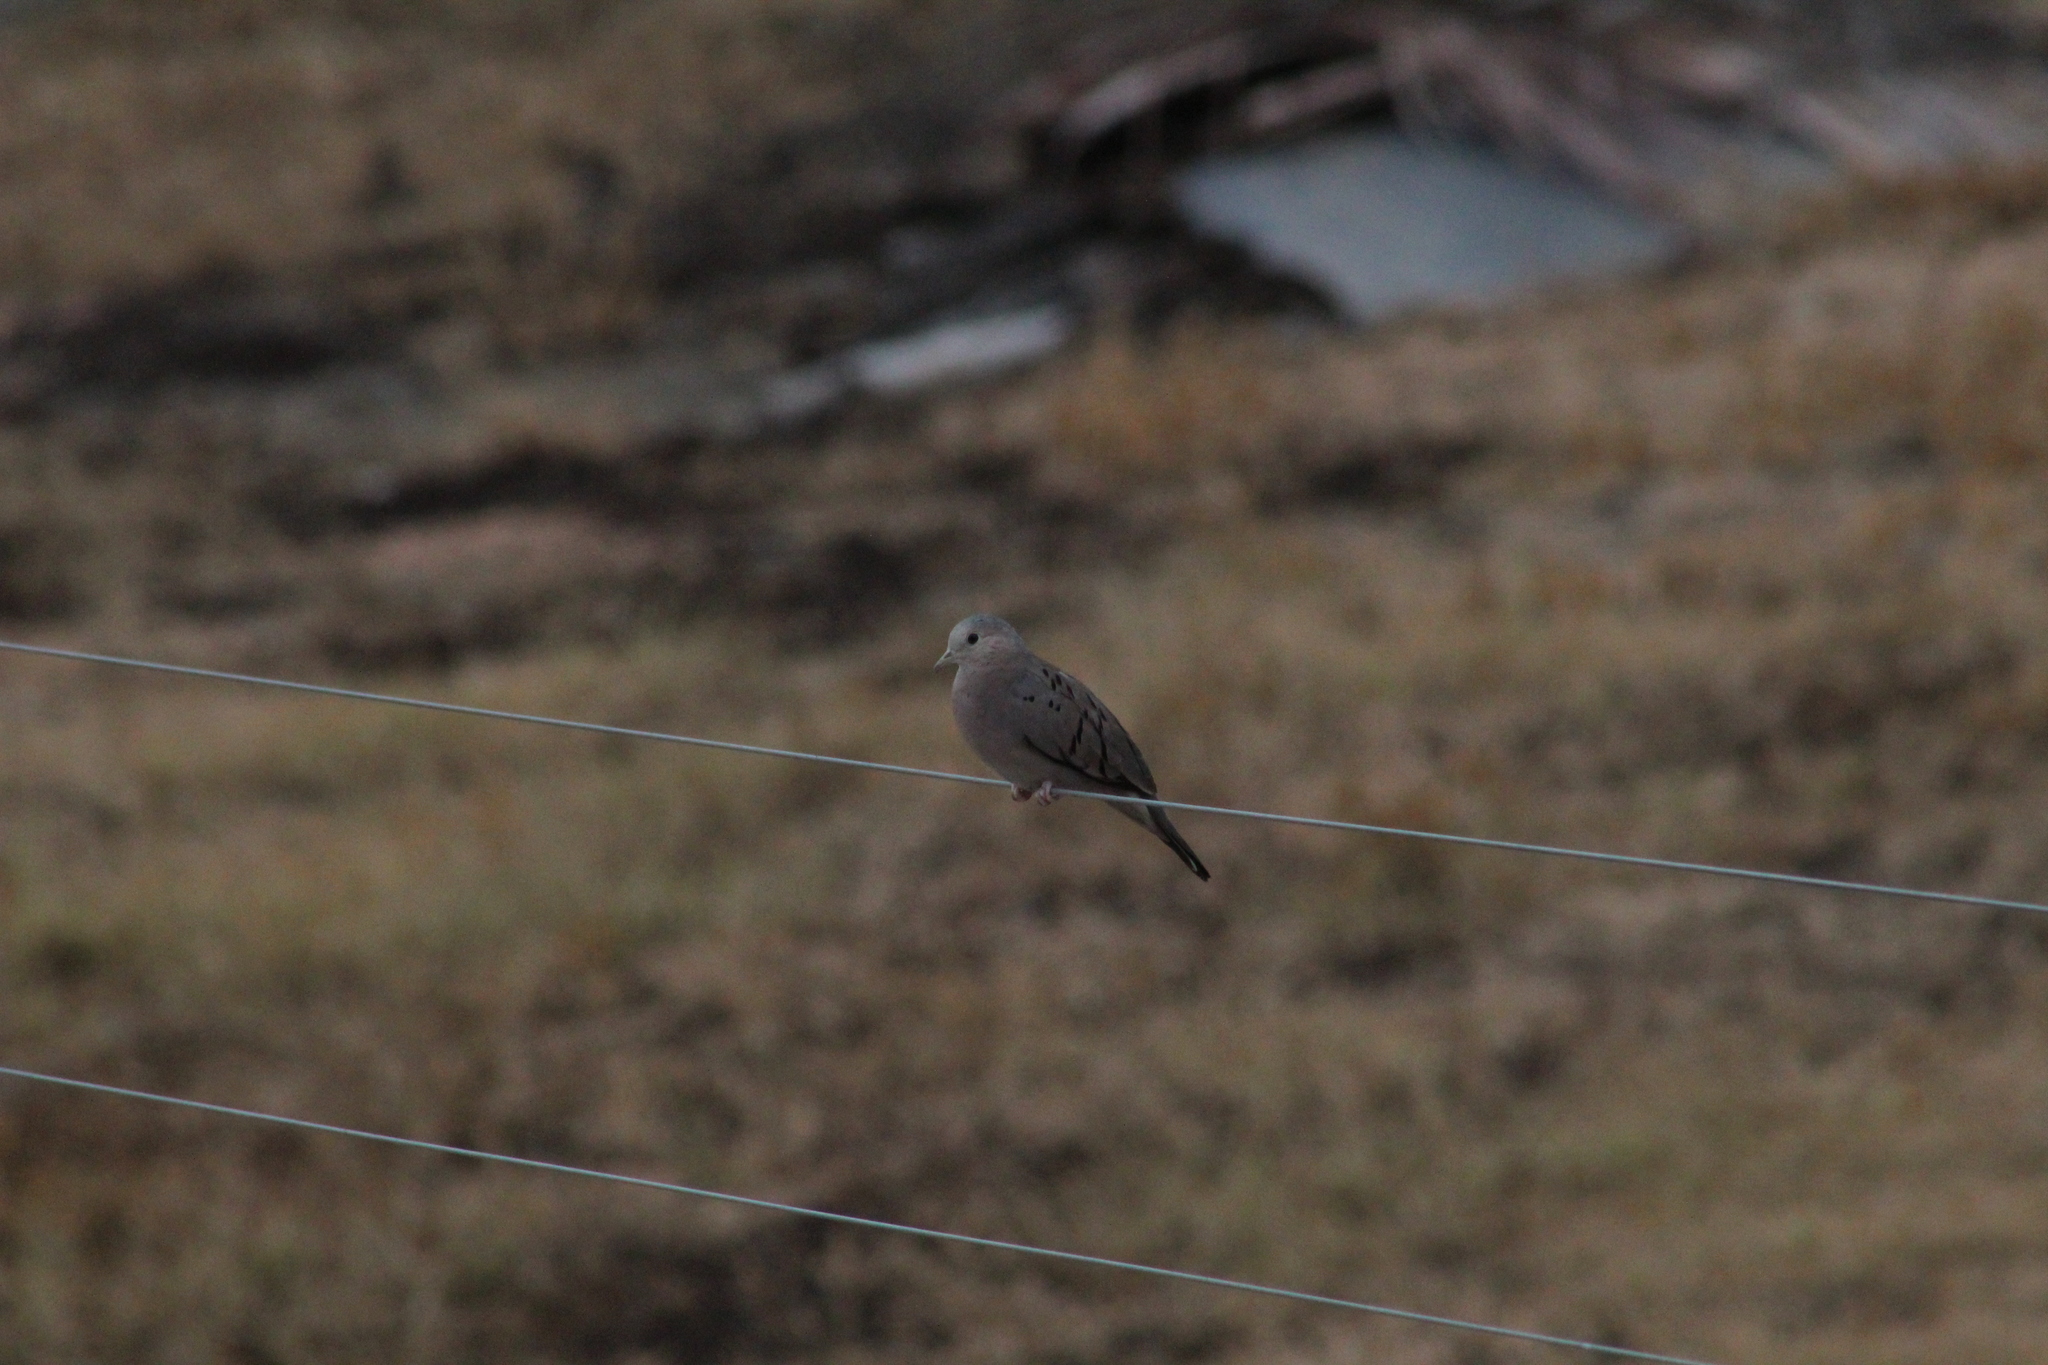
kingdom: Animalia
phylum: Chordata
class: Aves
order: Columbiformes
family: Columbidae
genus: Columbina
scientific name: Columbina buckleyi
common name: Ecuadorian ground dove
